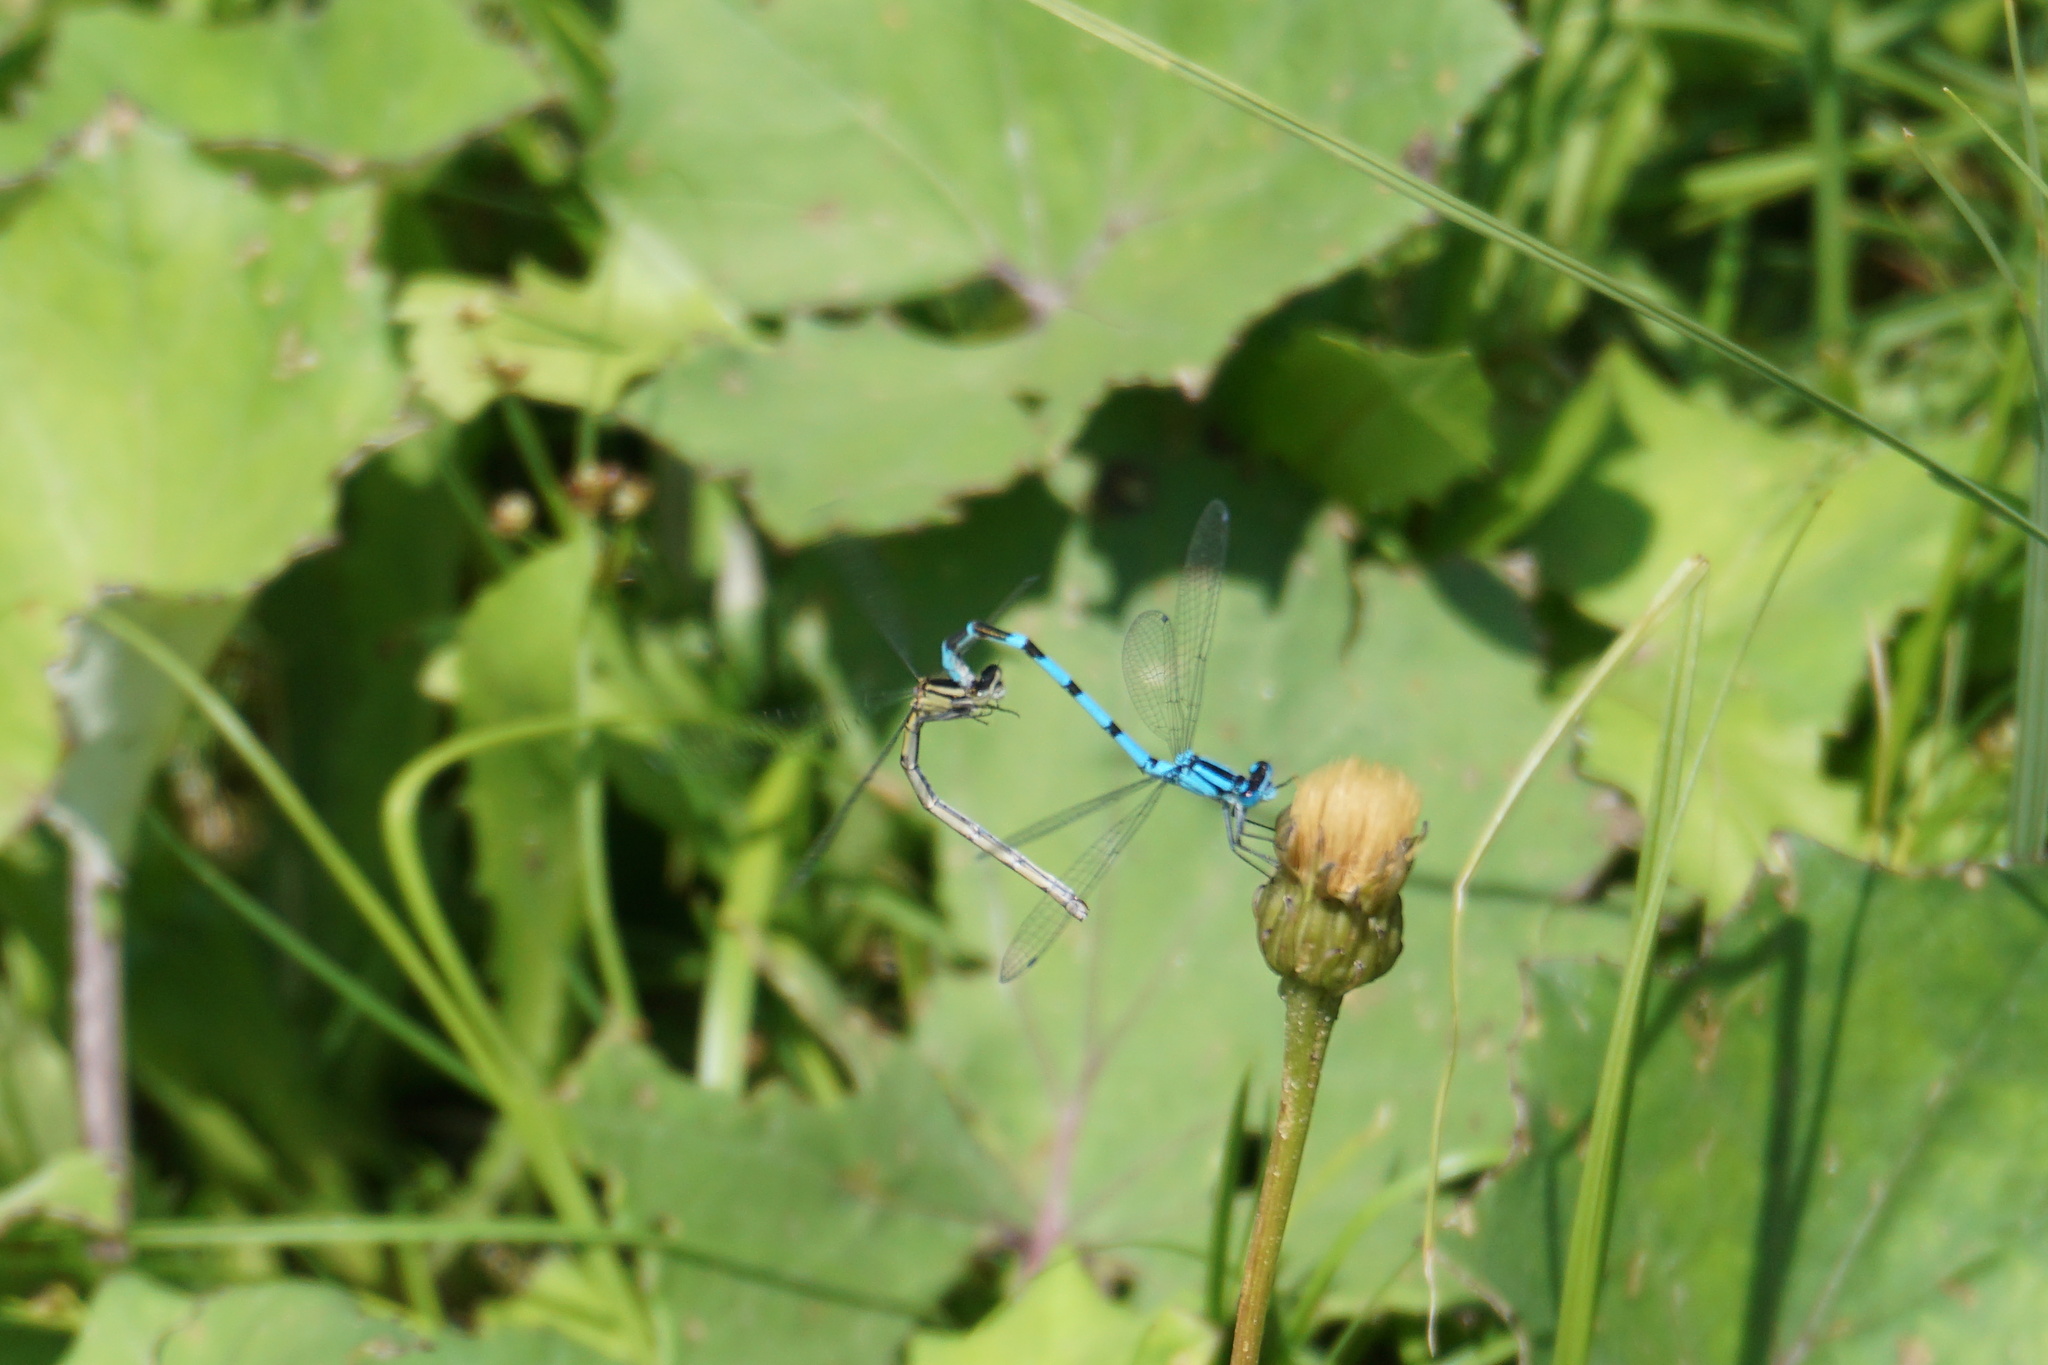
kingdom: Animalia
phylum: Arthropoda
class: Insecta
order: Odonata
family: Coenagrionidae
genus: Enallagma
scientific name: Enallagma cyathigerum
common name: Common blue damselfly
